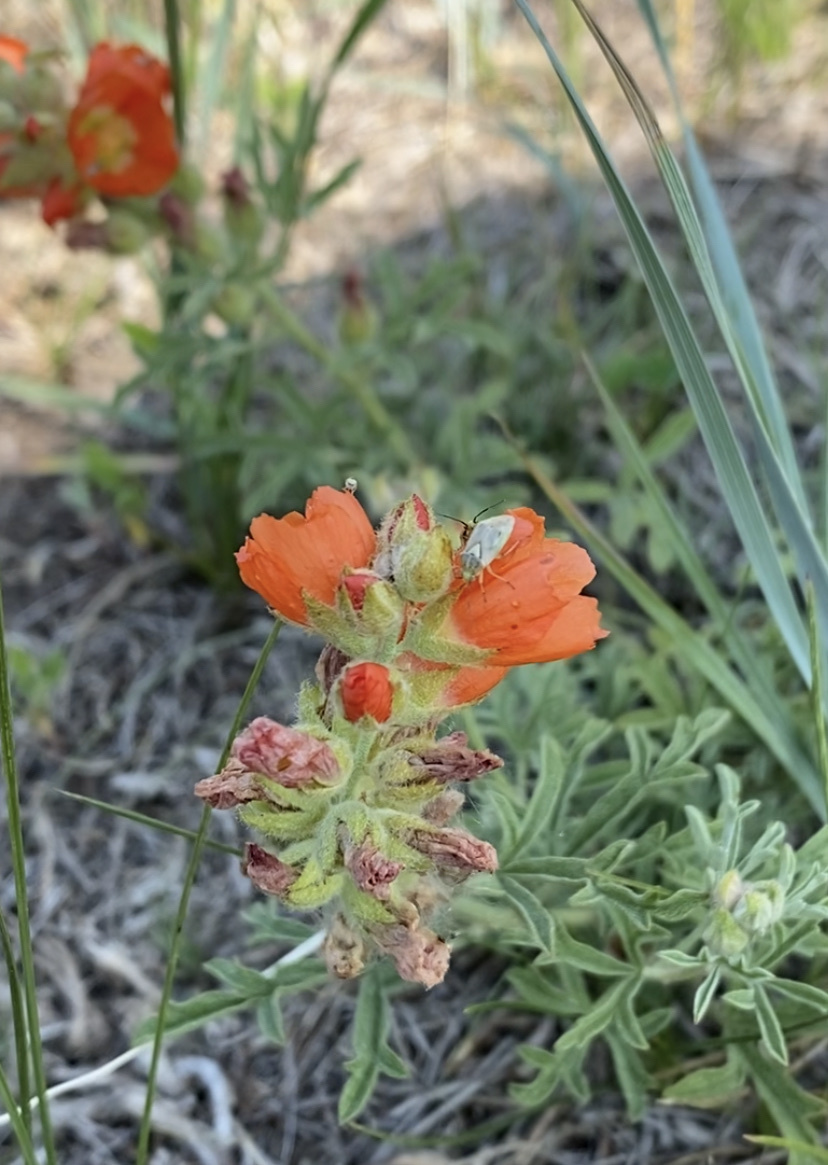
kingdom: Plantae
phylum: Tracheophyta
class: Magnoliopsida
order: Malvales
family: Malvaceae
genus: Sphaeralcea
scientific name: Sphaeralcea coccinea
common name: Moss-rose
